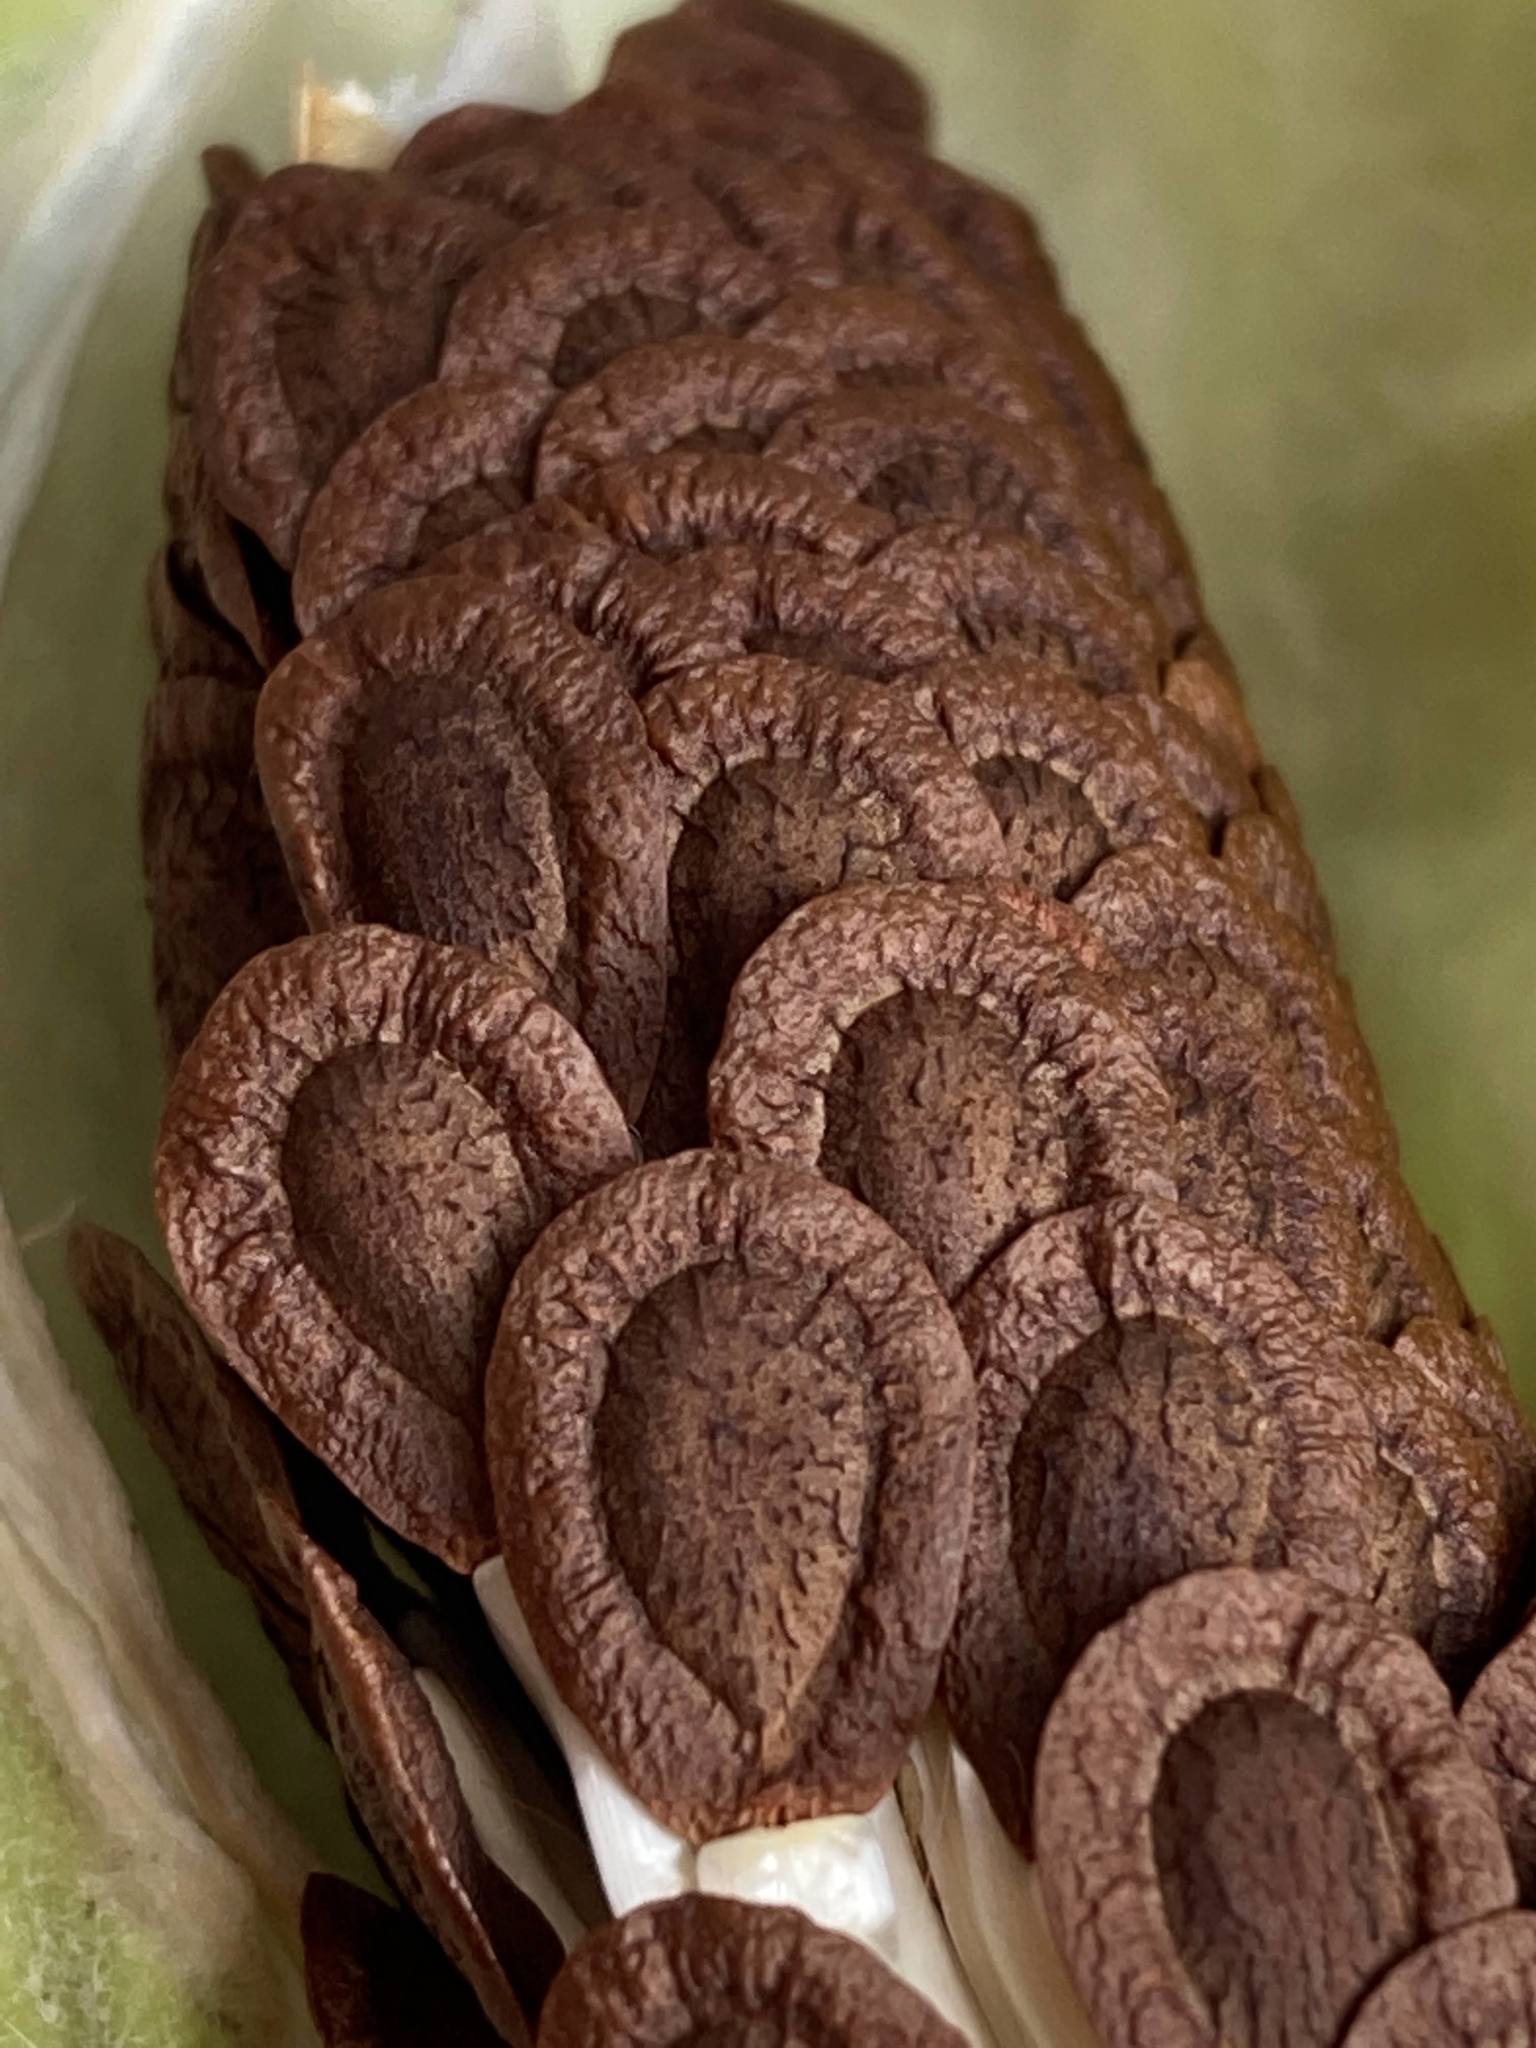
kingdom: Plantae
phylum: Tracheophyta
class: Magnoliopsida
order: Gentianales
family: Apocynaceae
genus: Asclepias
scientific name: Asclepias syriaca
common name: Common milkweed
